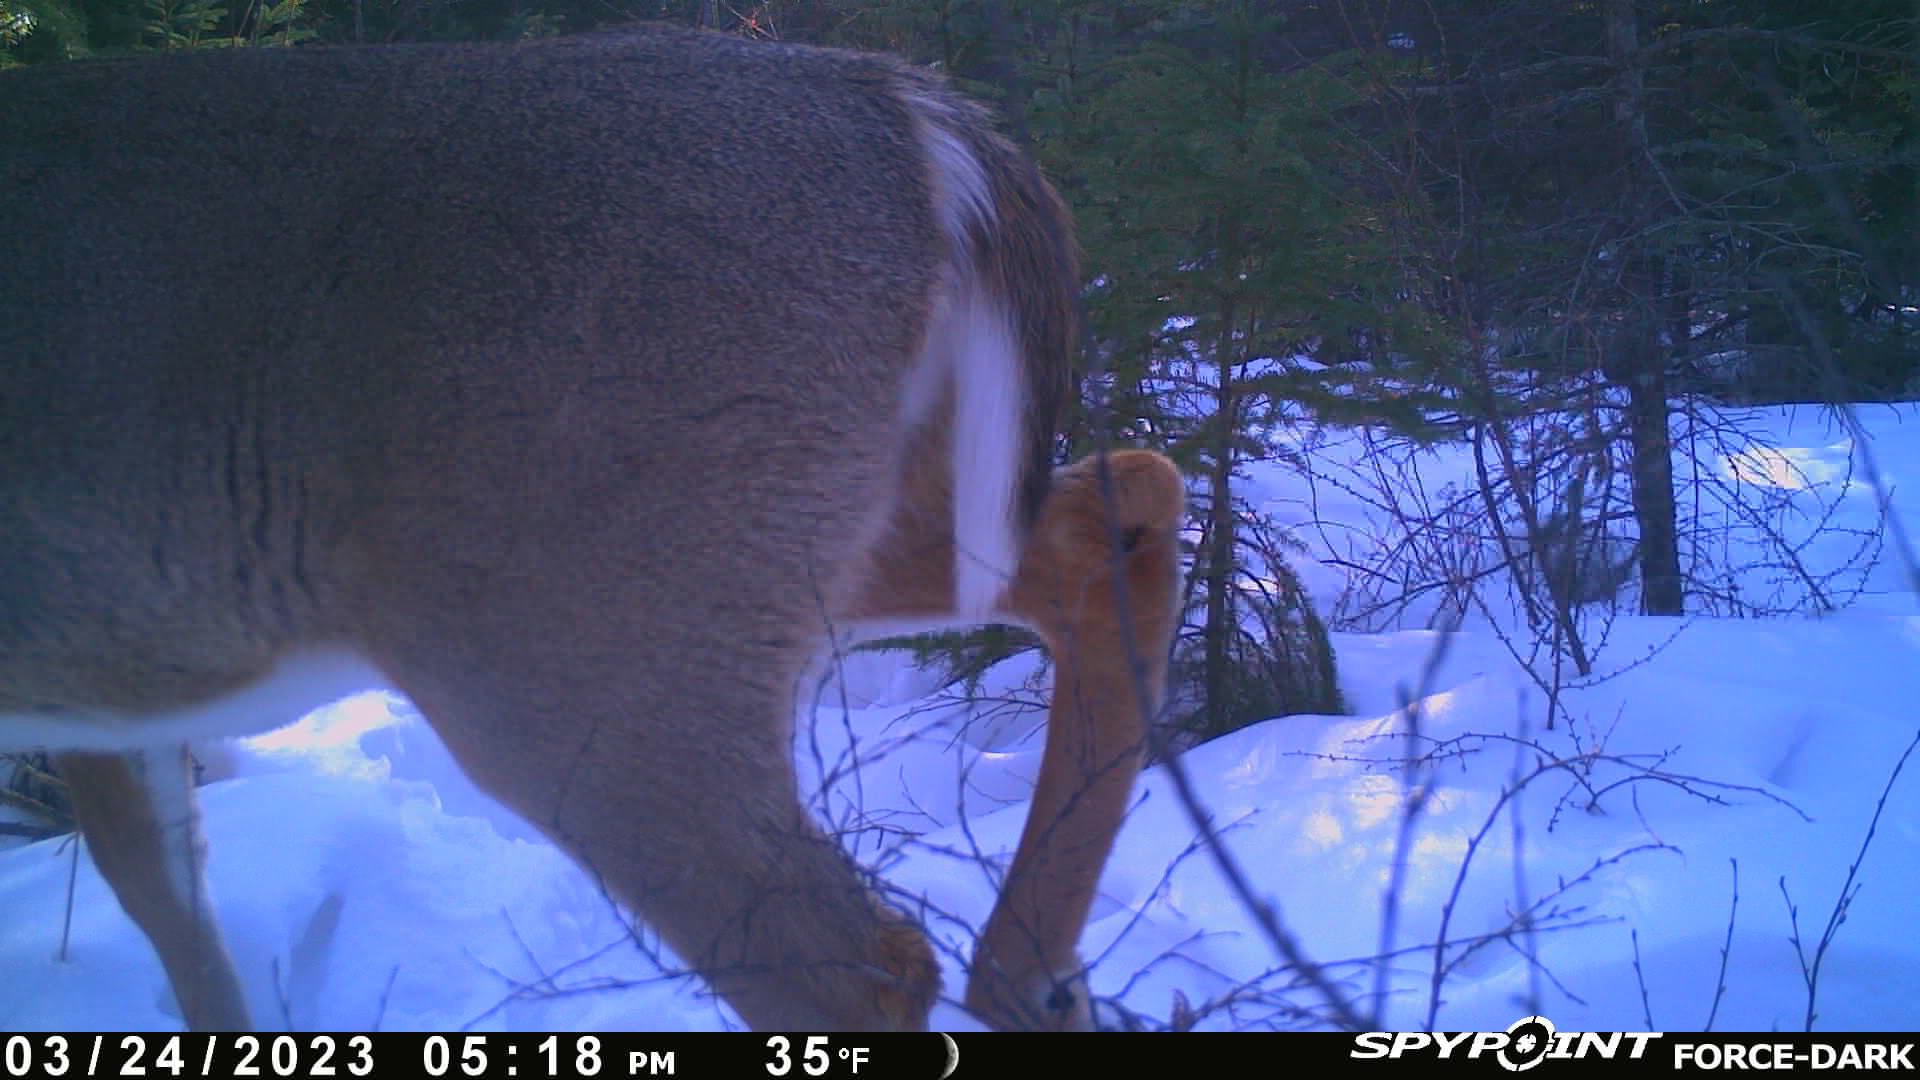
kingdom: Animalia
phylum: Chordata
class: Mammalia
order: Artiodactyla
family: Cervidae
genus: Odocoileus
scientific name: Odocoileus virginianus
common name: White-tailed deer
